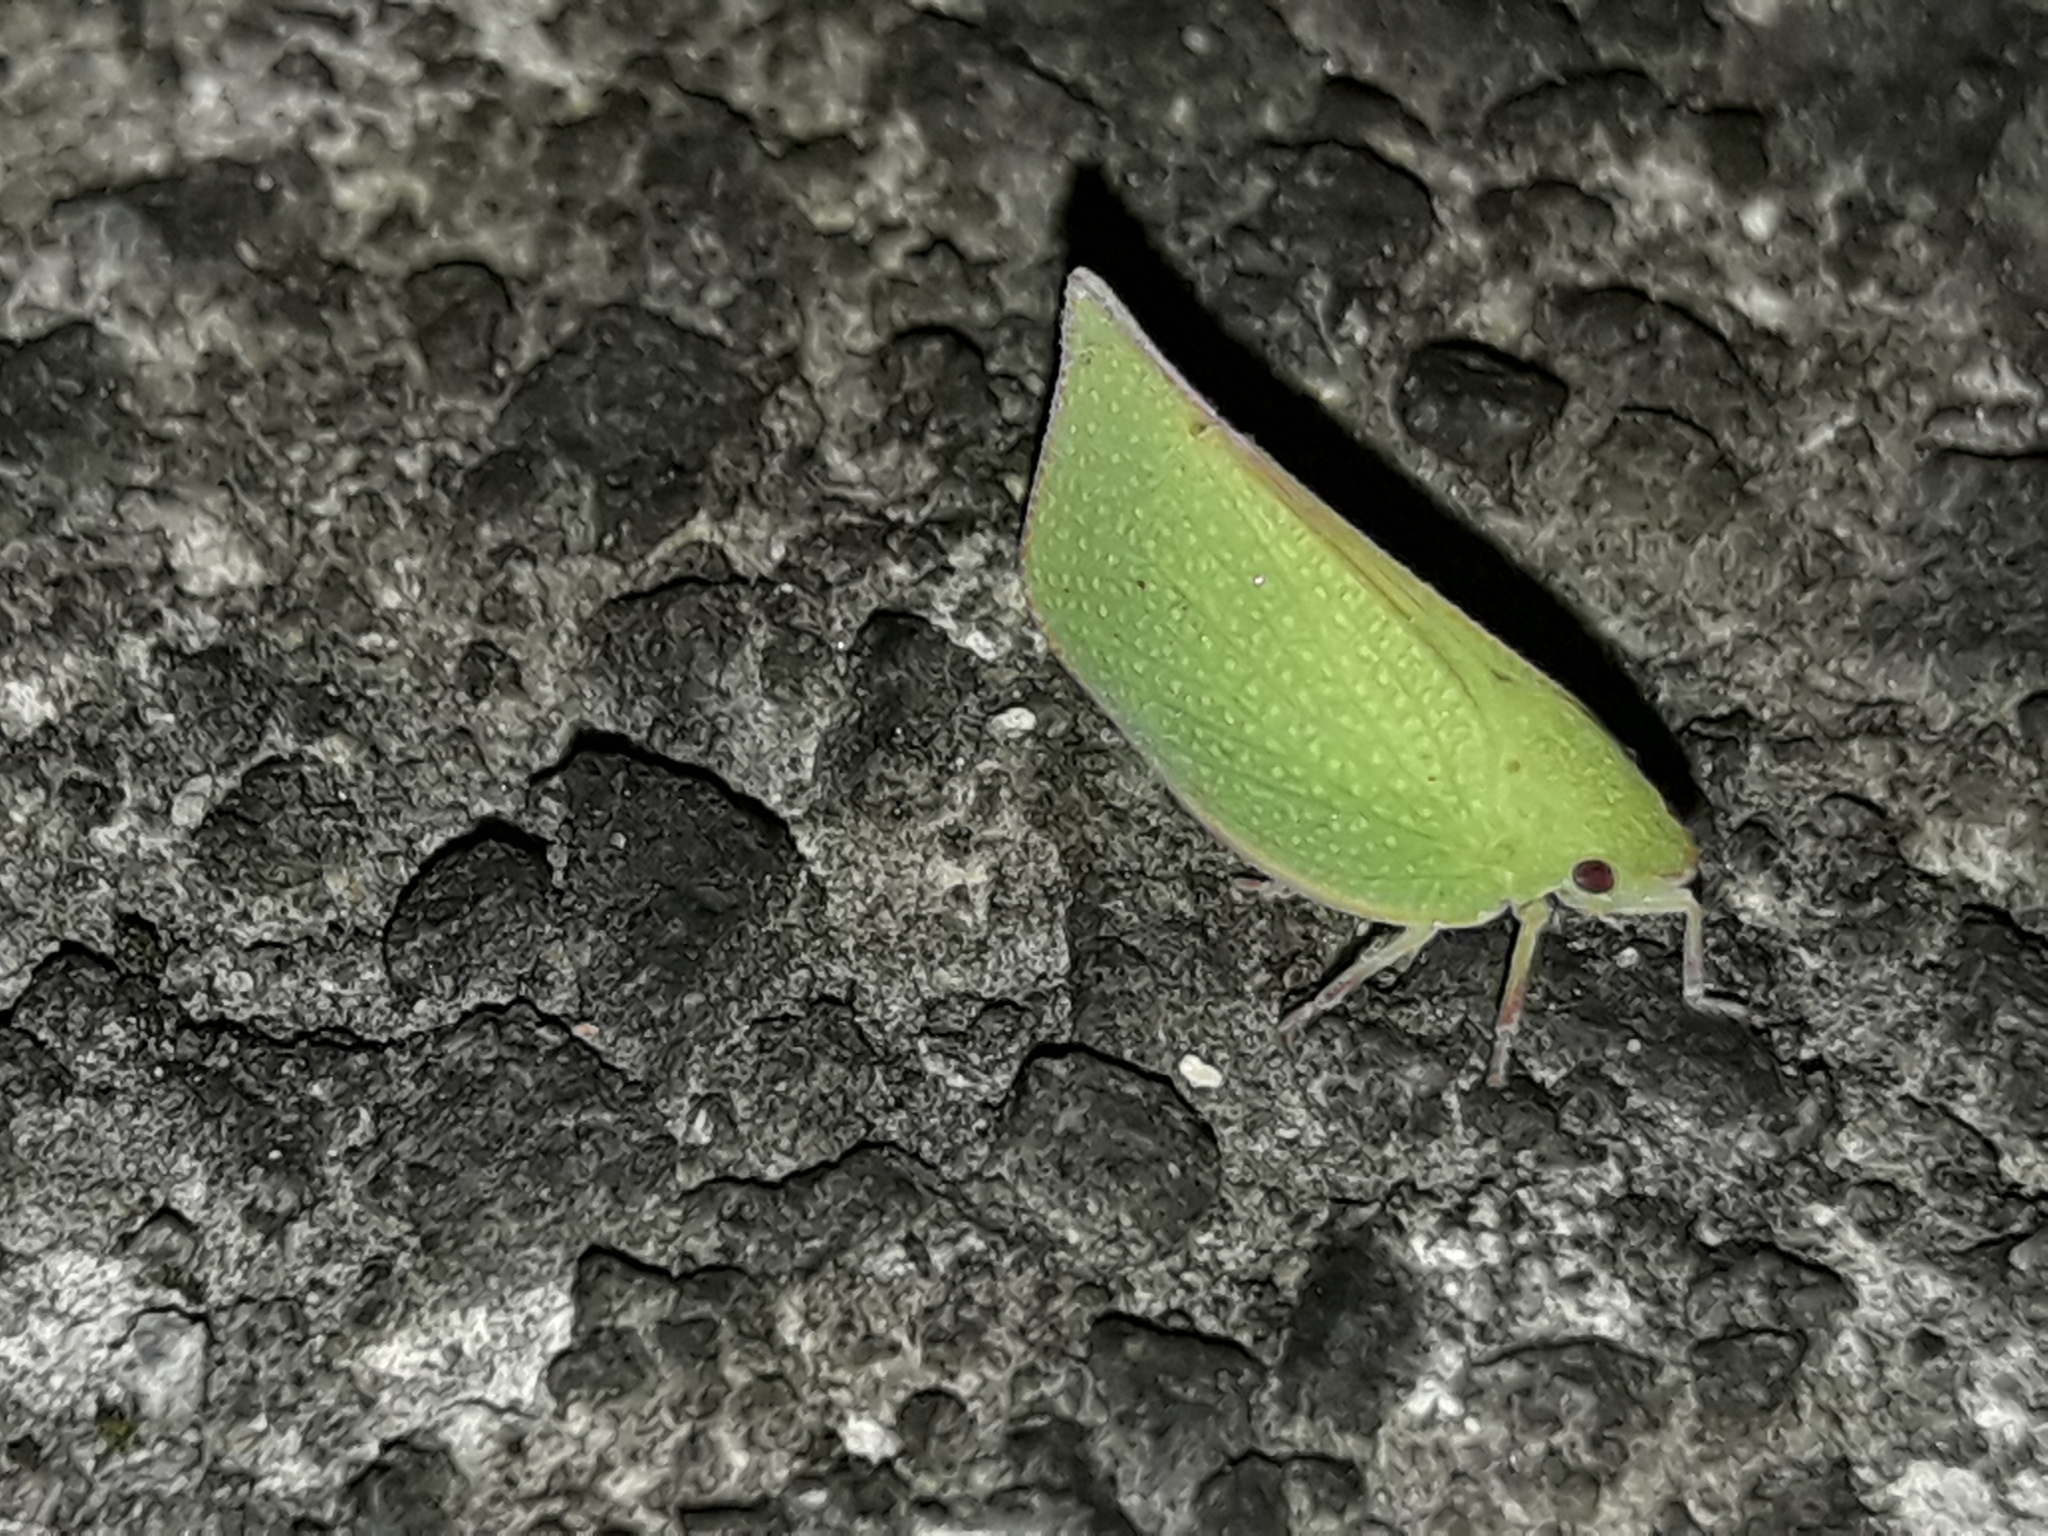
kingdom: Animalia
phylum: Arthropoda
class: Insecta
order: Hemiptera
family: Flatidae
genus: Siphanta
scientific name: Siphanta acuta
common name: Torpedo bug
